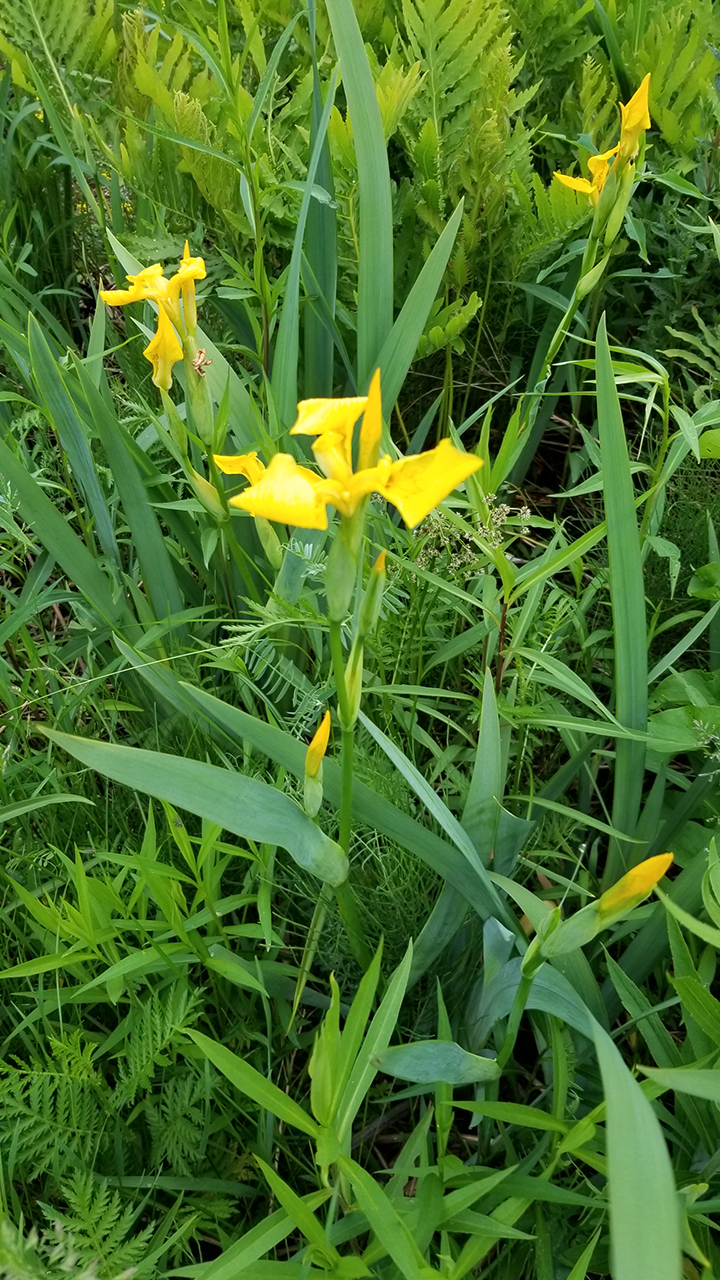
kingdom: Plantae
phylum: Tracheophyta
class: Liliopsida
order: Asparagales
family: Iridaceae
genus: Iris
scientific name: Iris pseudacorus
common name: Yellow flag
